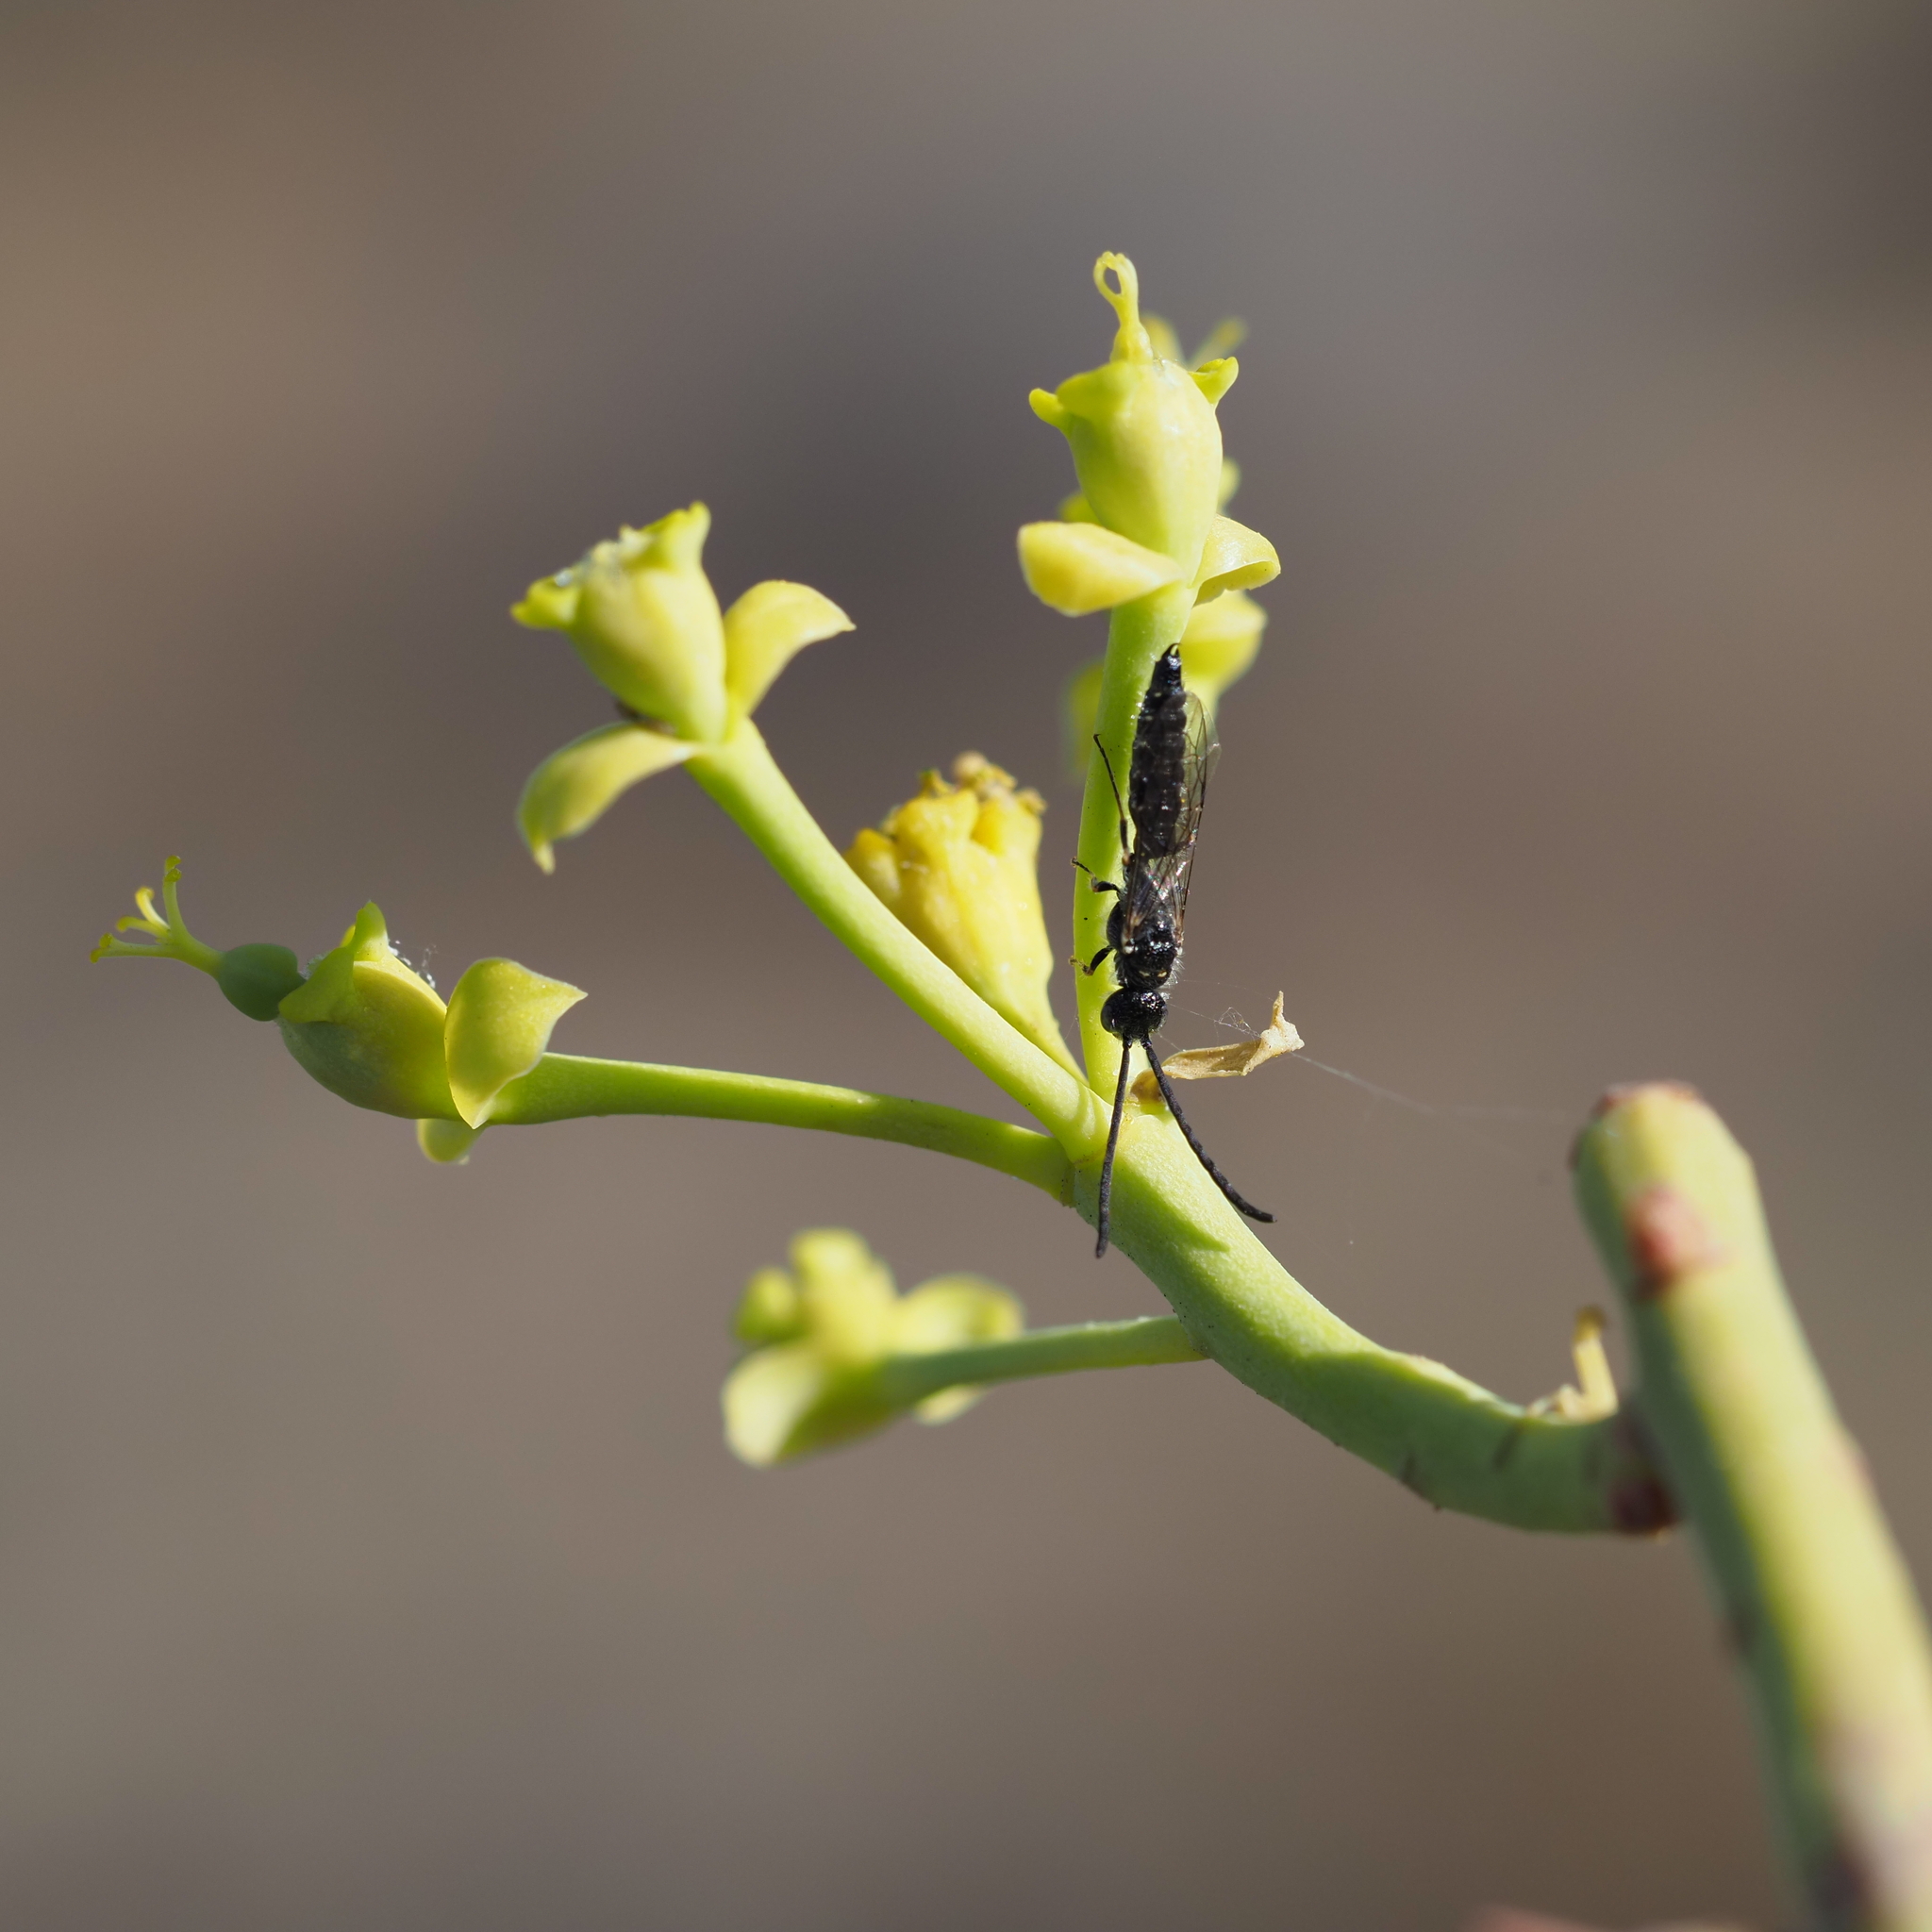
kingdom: Animalia
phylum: Arthropoda
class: Insecta
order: Hymenoptera
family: Tiphiidae
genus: Poecilotiphia
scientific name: Poecilotiphia
